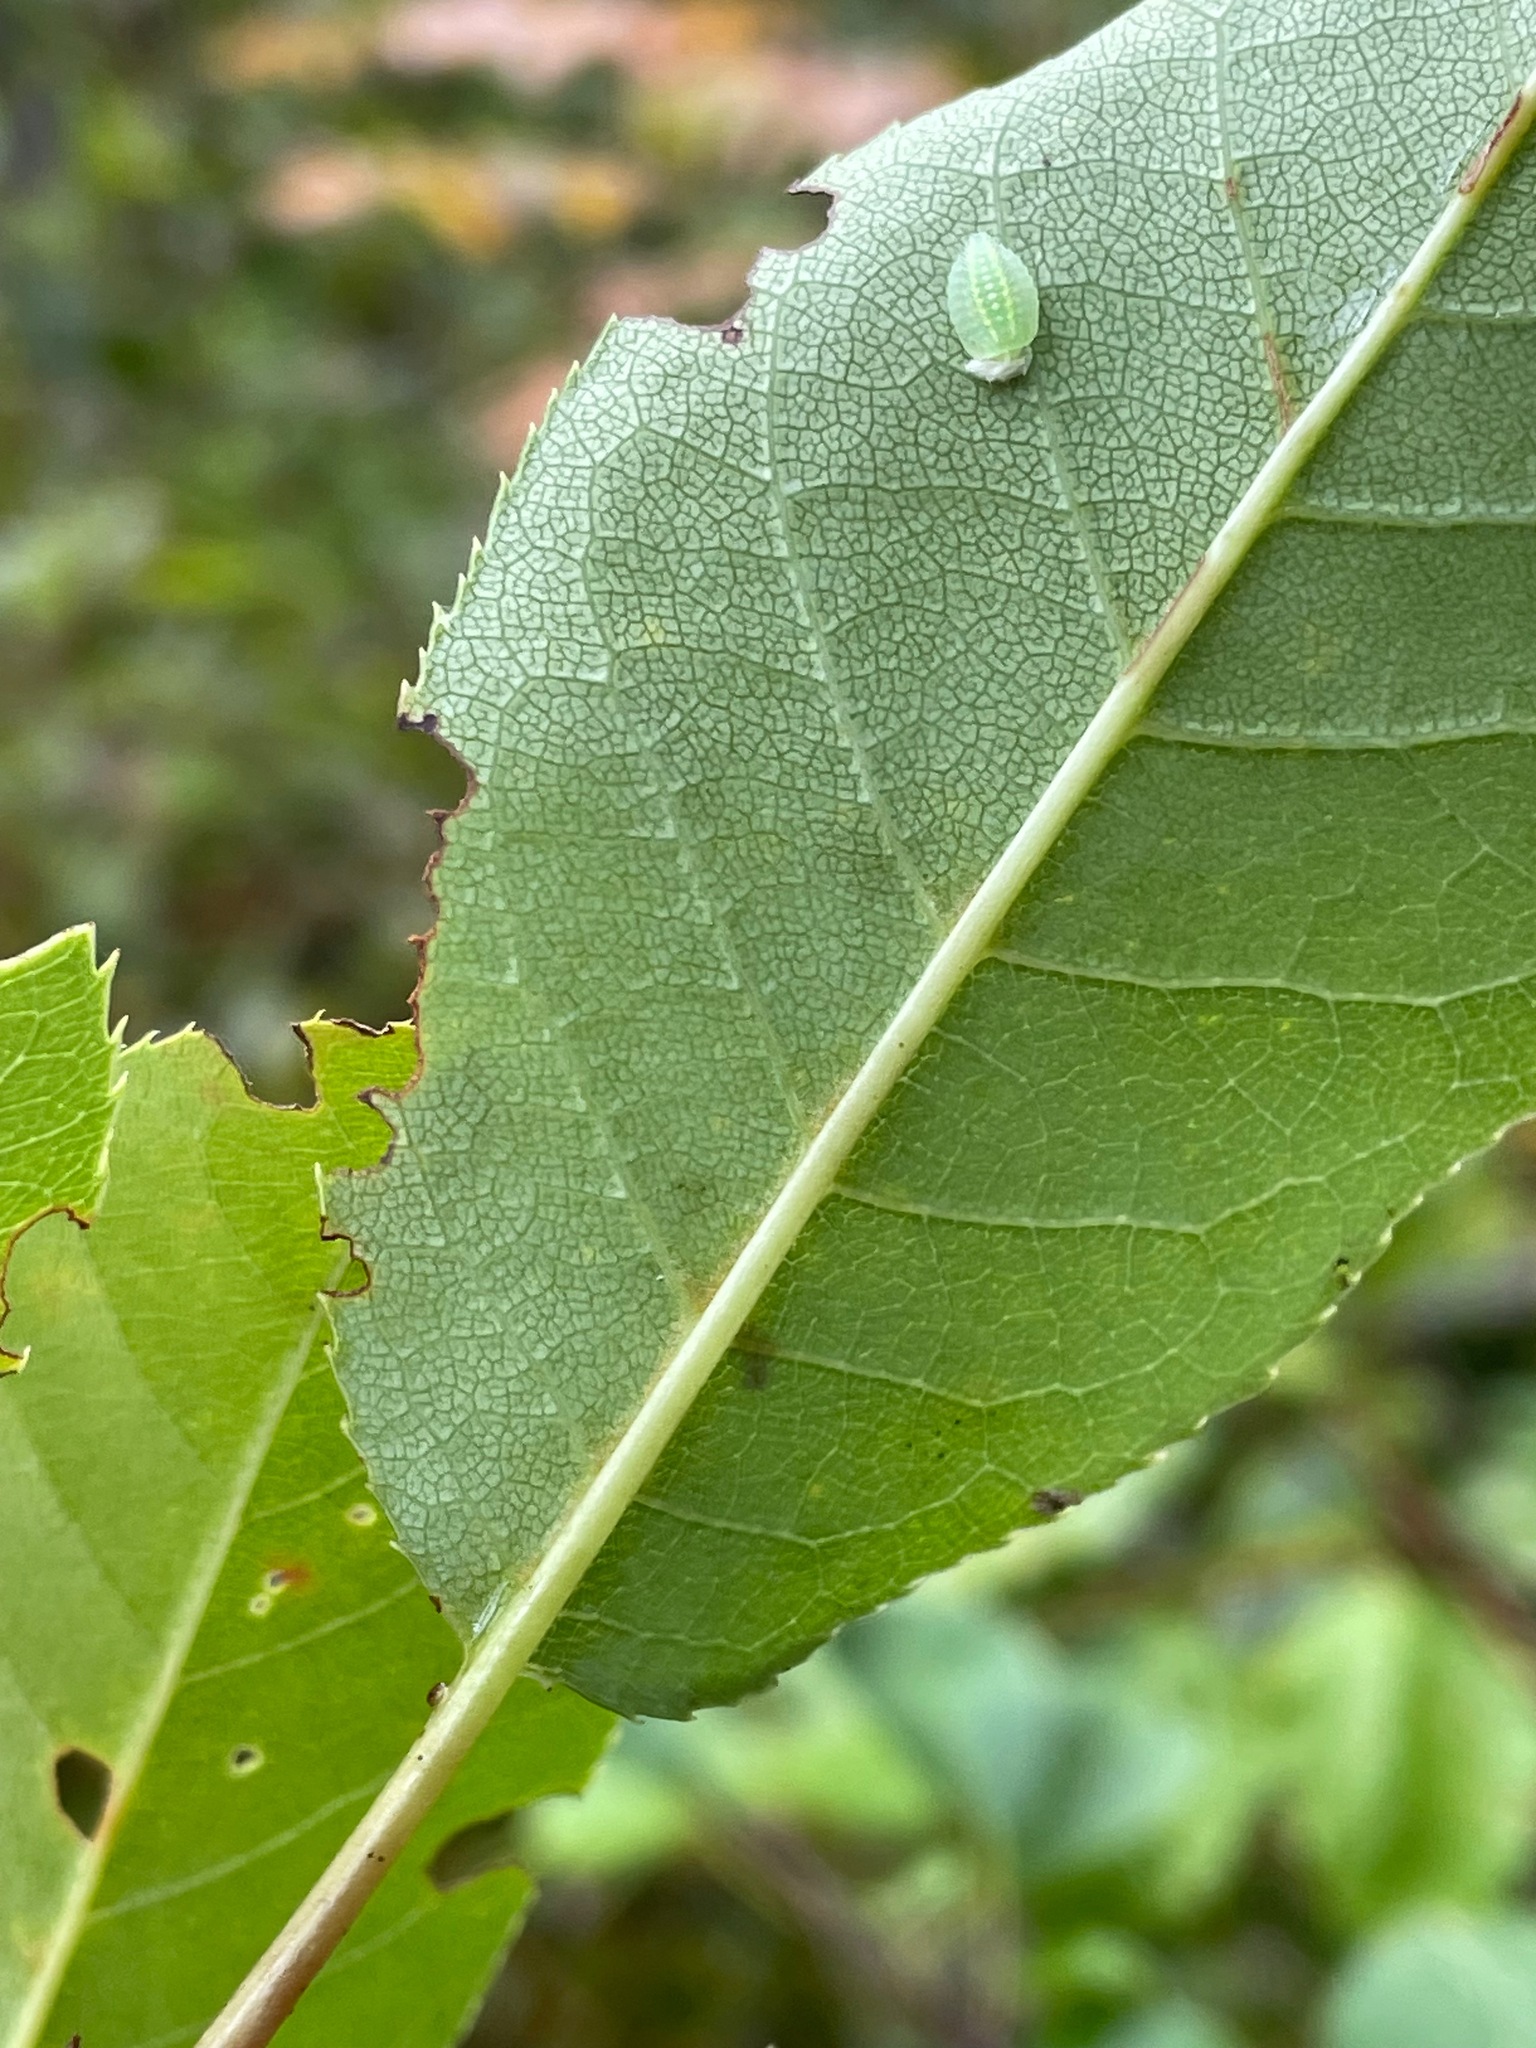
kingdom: Plantae
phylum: Tracheophyta
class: Magnoliopsida
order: Rosales
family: Rosaceae
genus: Prunus
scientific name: Prunus virginiana
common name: Chokecherry
